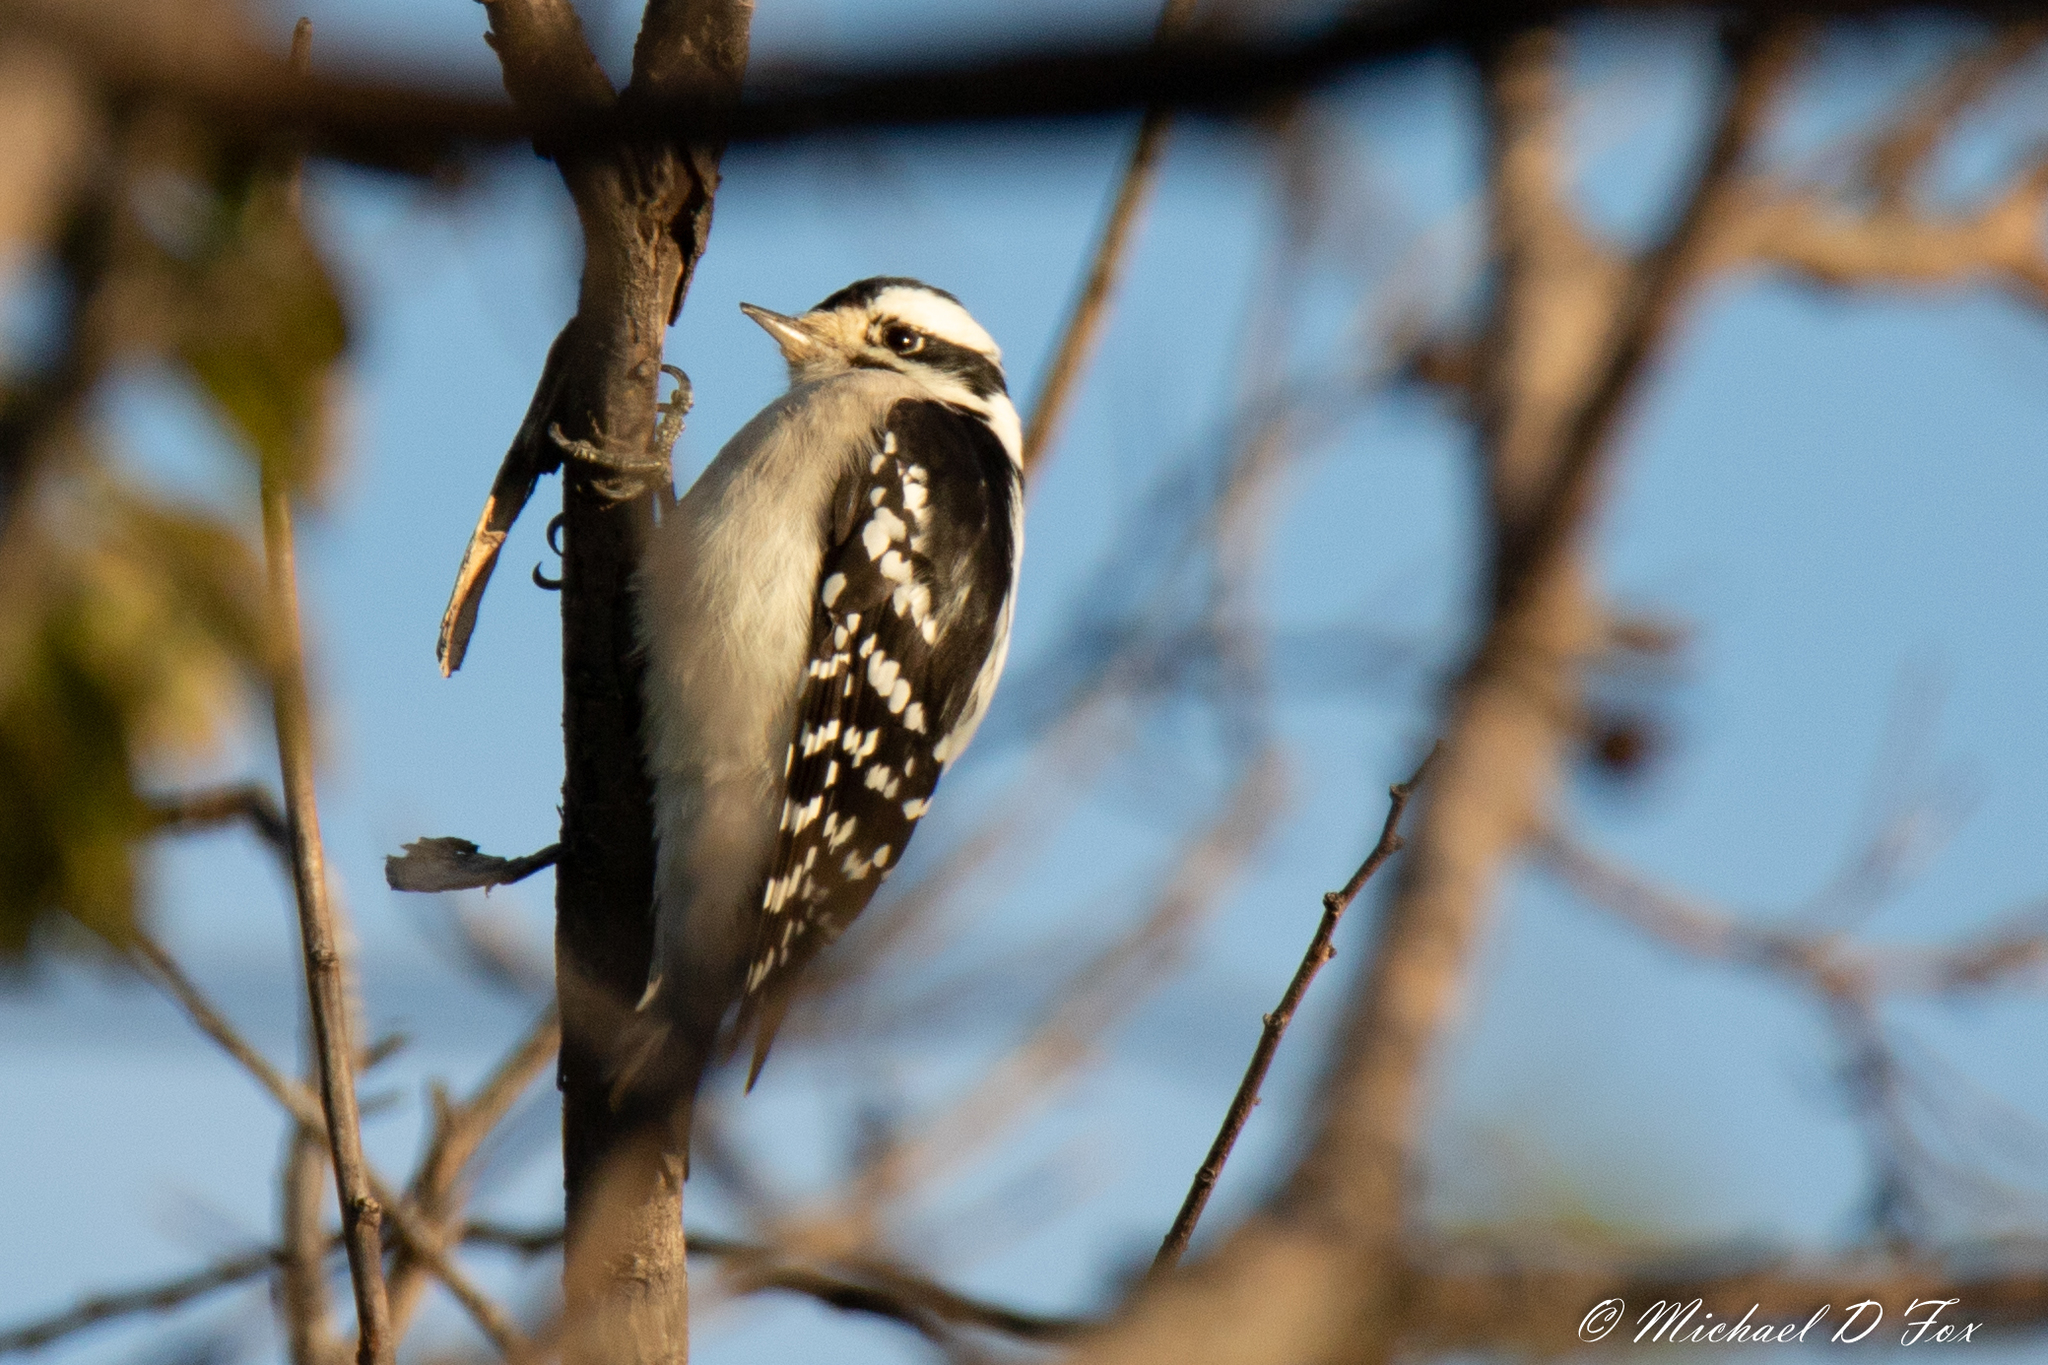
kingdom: Animalia
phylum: Chordata
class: Aves
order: Piciformes
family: Picidae
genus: Dryobates
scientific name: Dryobates pubescens
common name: Downy woodpecker
